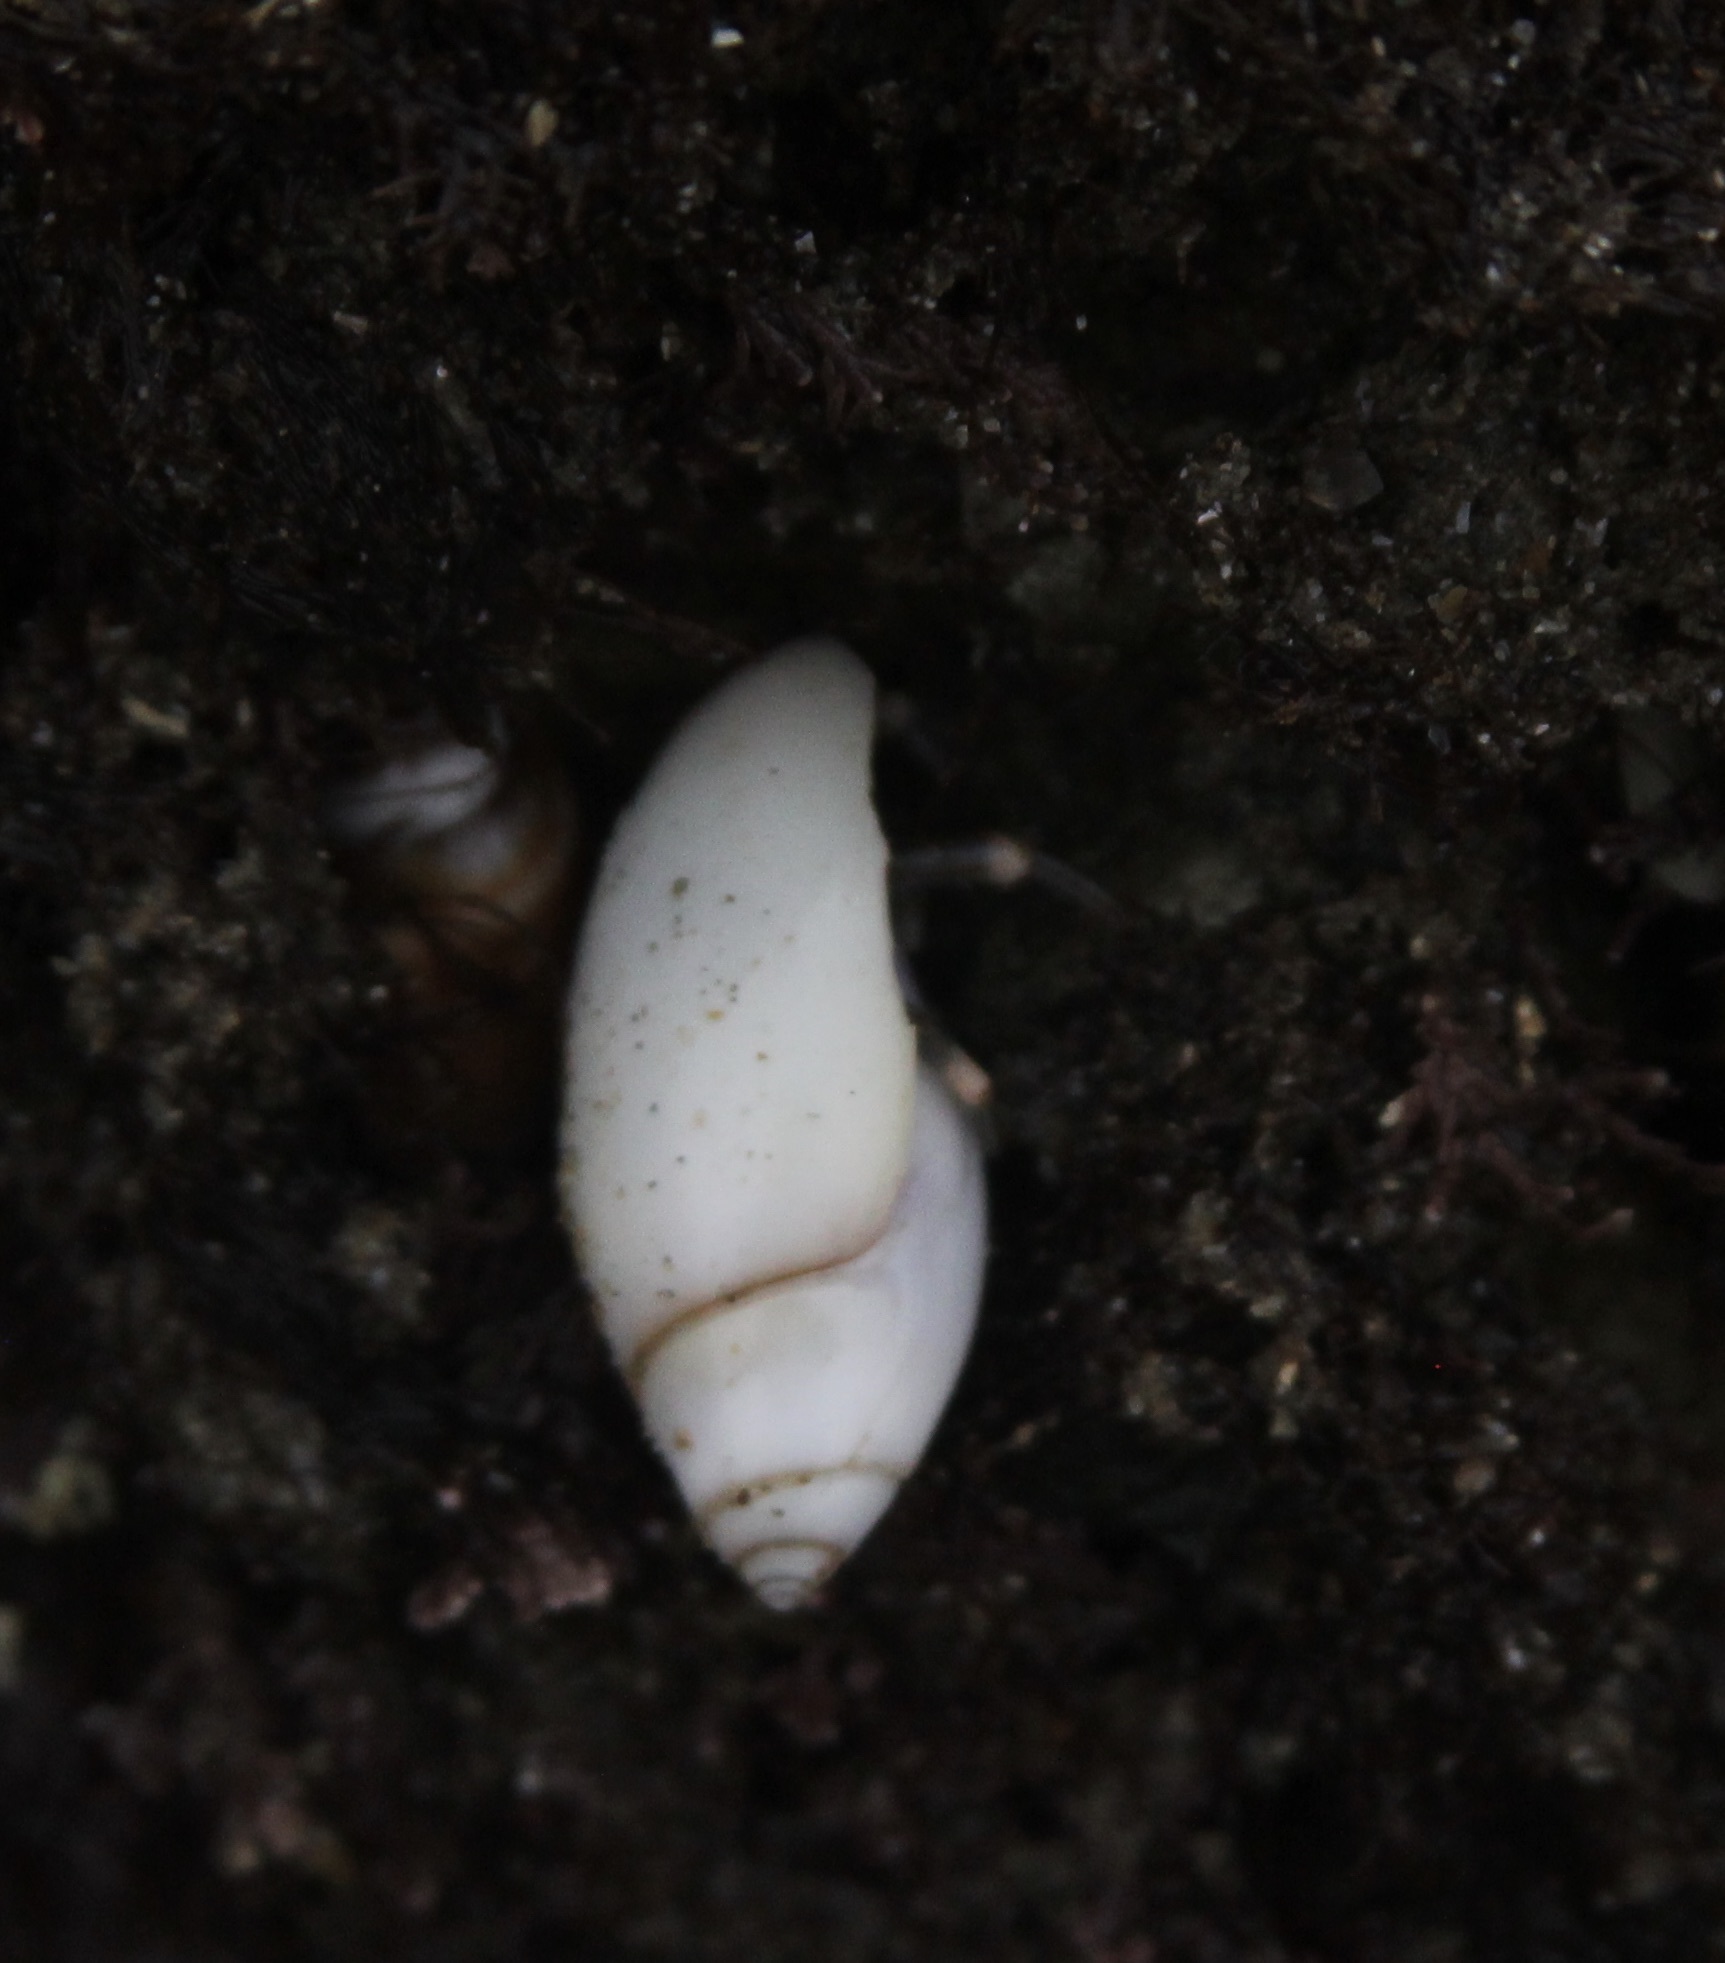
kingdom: Animalia
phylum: Mollusca
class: Gastropoda
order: Neogastropoda
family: Olividae
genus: Callianax
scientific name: Callianax biplicata
